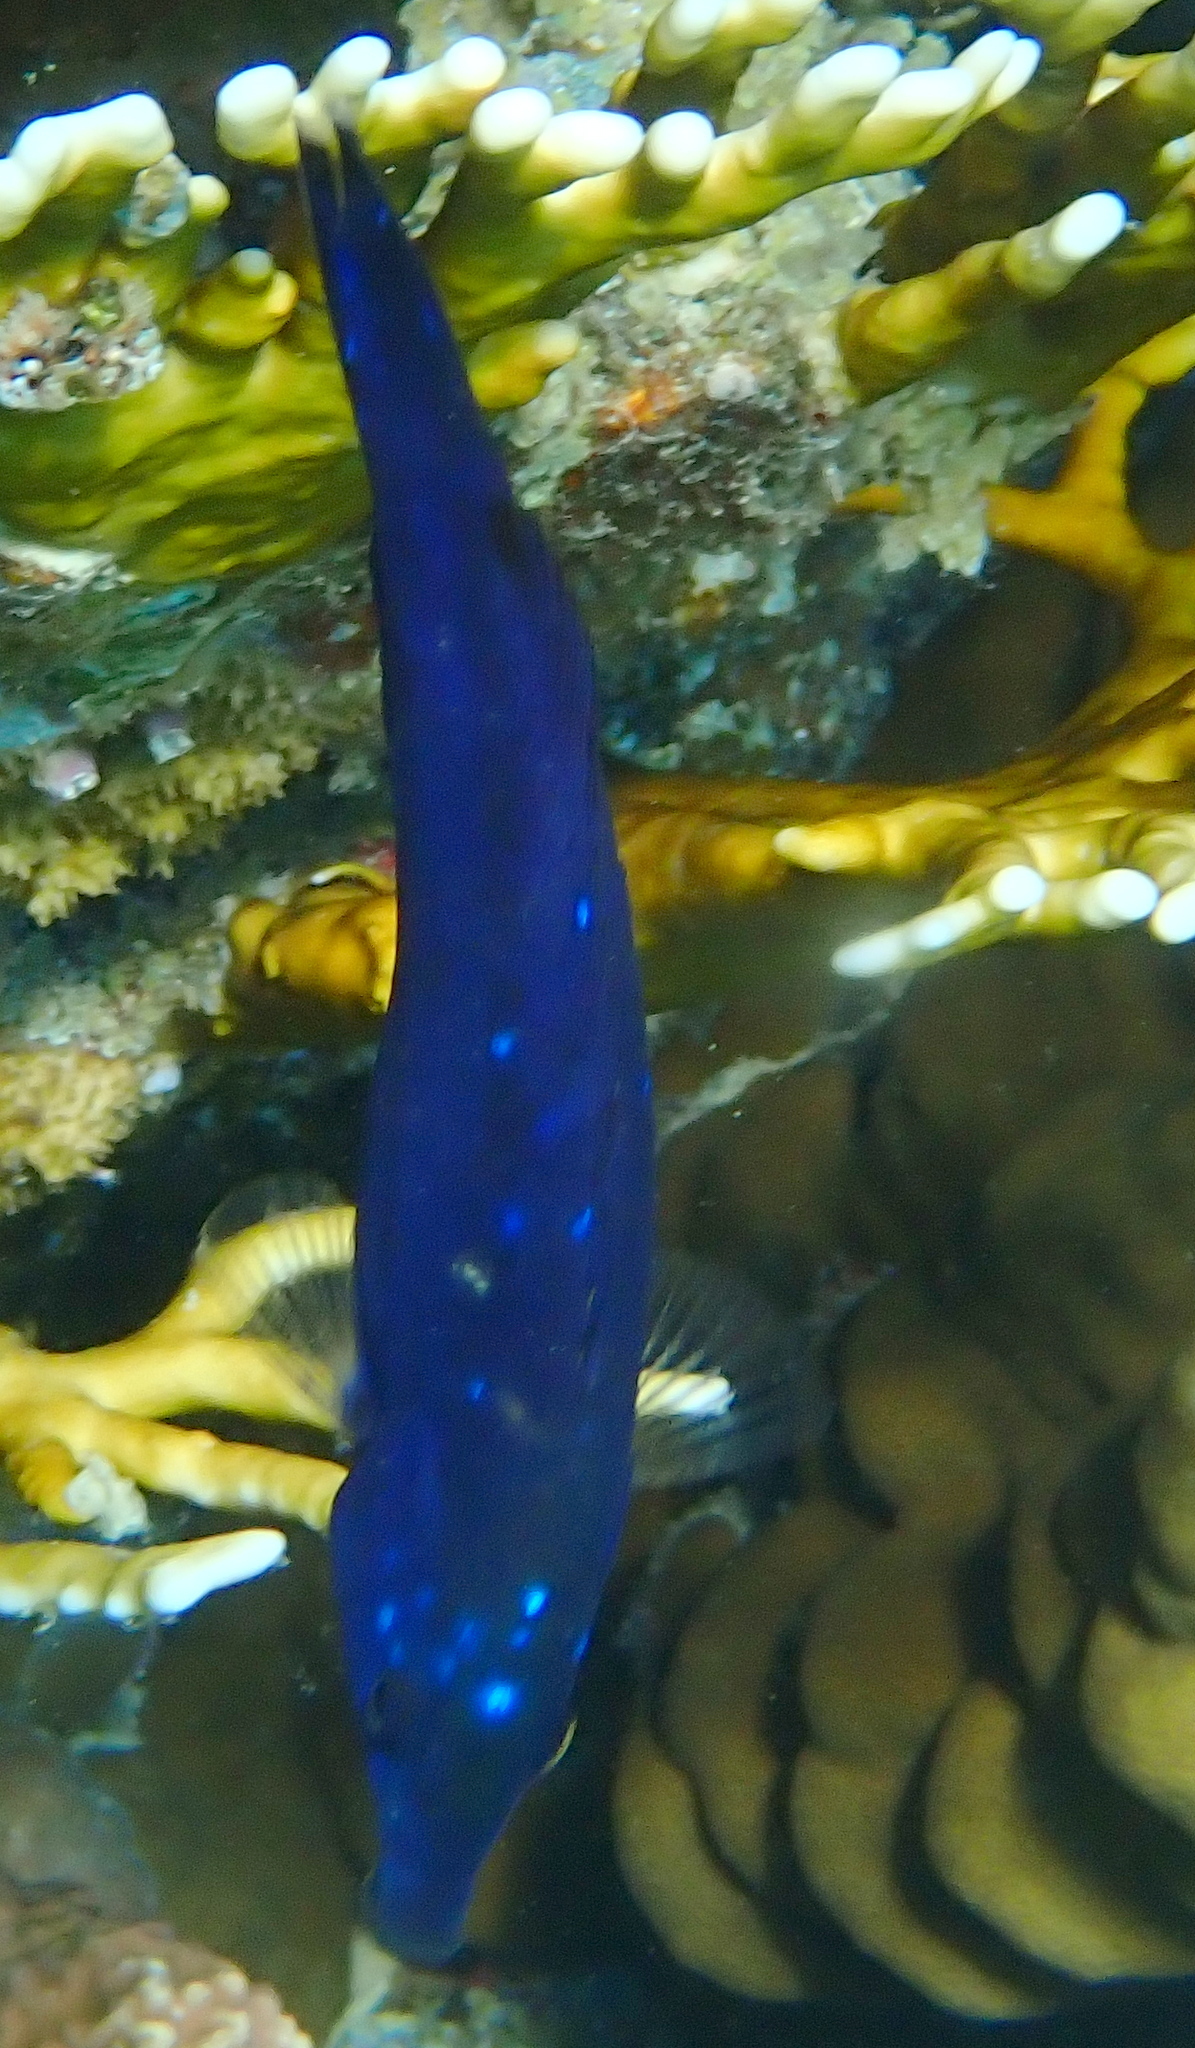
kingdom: Animalia
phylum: Chordata
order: Perciformes
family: Labridae
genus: Larabicus
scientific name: Larabicus quadrilineatus
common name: Fourline wrasse
